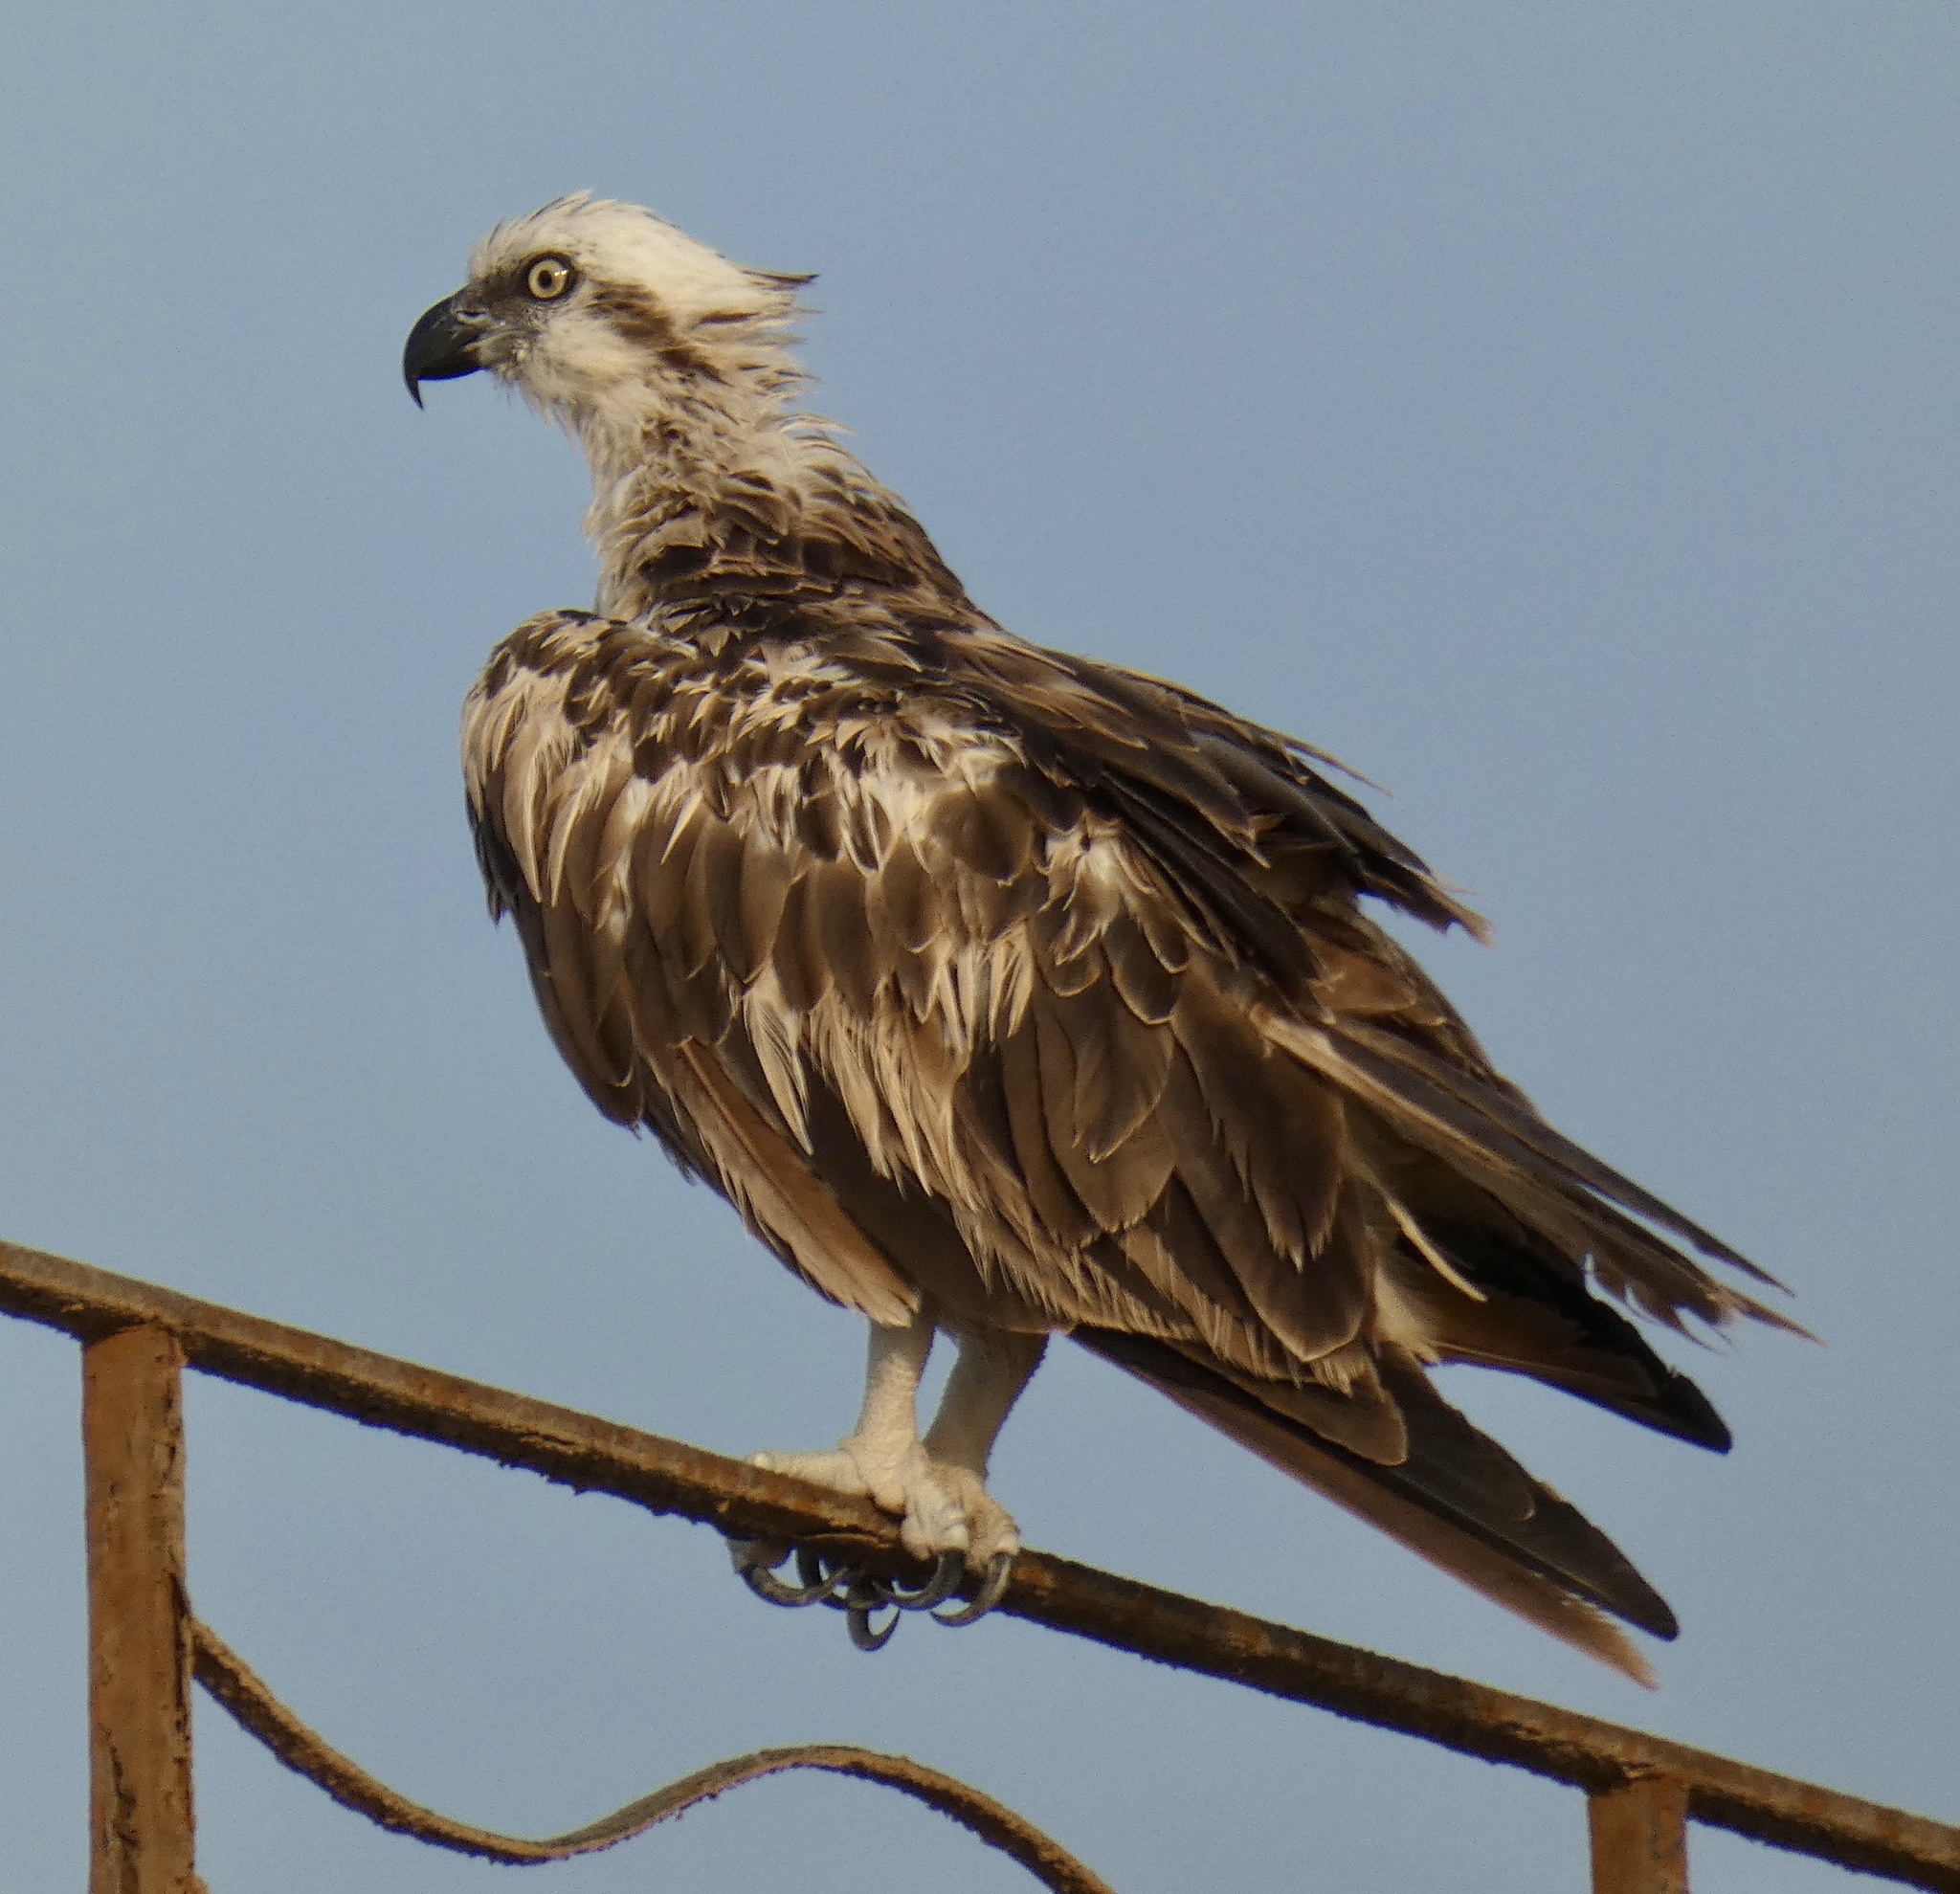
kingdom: Animalia
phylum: Chordata
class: Aves
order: Accipitriformes
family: Pandionidae
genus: Pandion
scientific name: Pandion haliaetus
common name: Osprey
